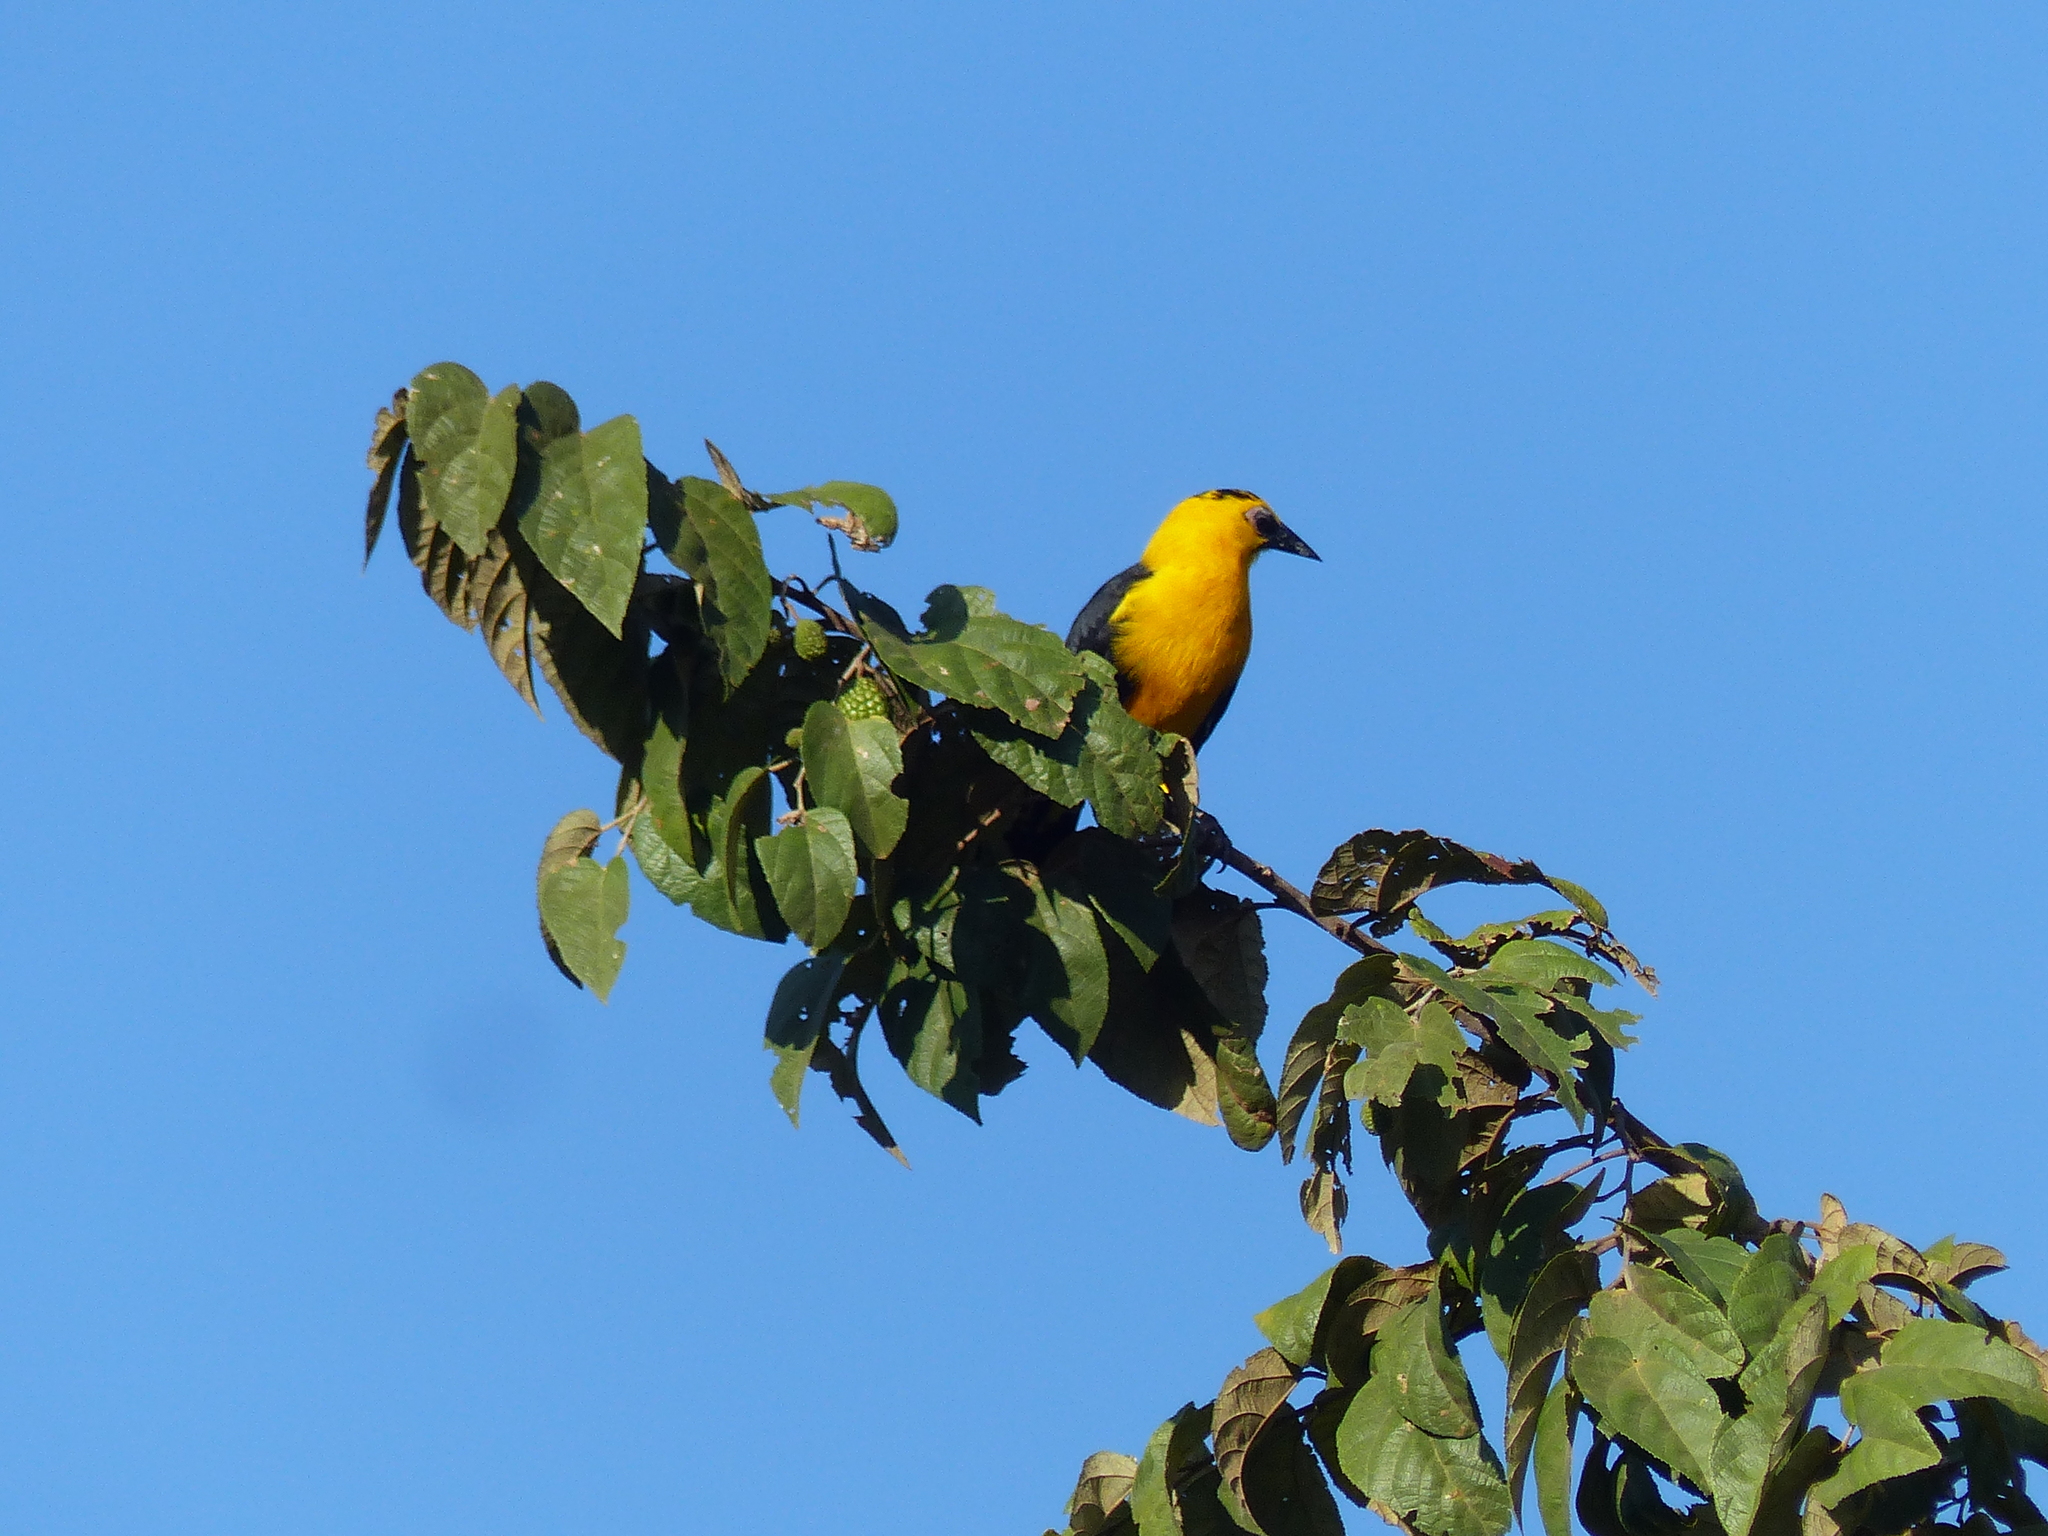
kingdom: Animalia
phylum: Chordata
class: Aves
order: Passeriformes
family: Icteridae
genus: Gymnomystax
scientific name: Gymnomystax mexicanus
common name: Oriole blackbird
